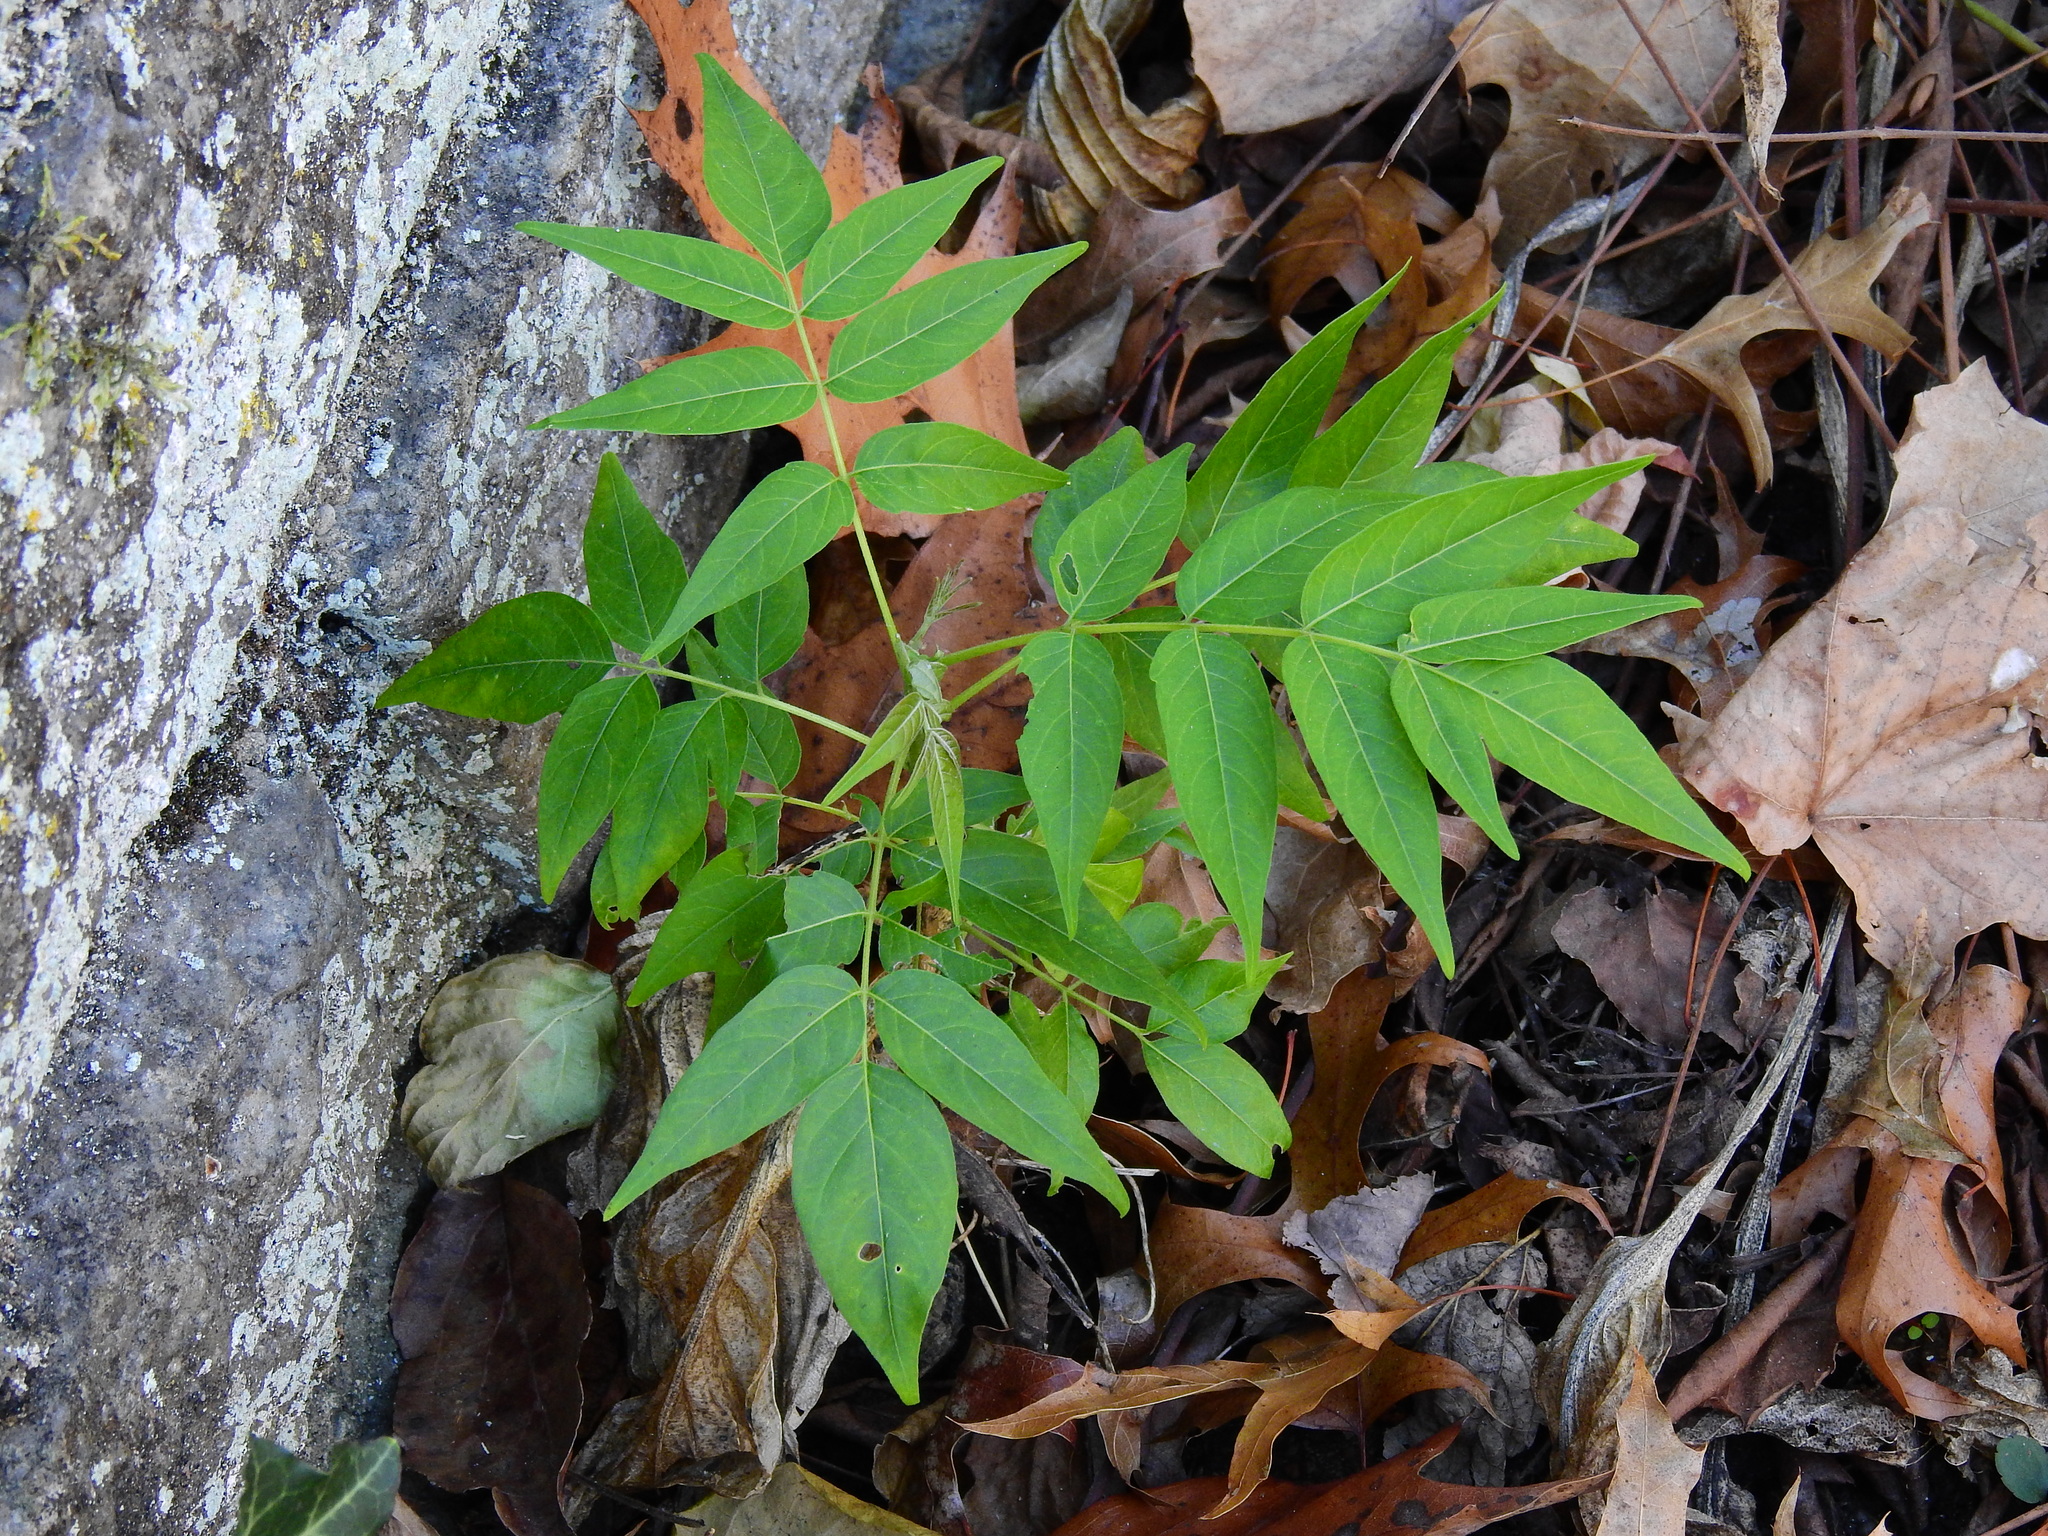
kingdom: Plantae
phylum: Tracheophyta
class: Magnoliopsida
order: Sapindales
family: Simaroubaceae
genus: Ailanthus
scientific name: Ailanthus altissima
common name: Tree-of-heaven
